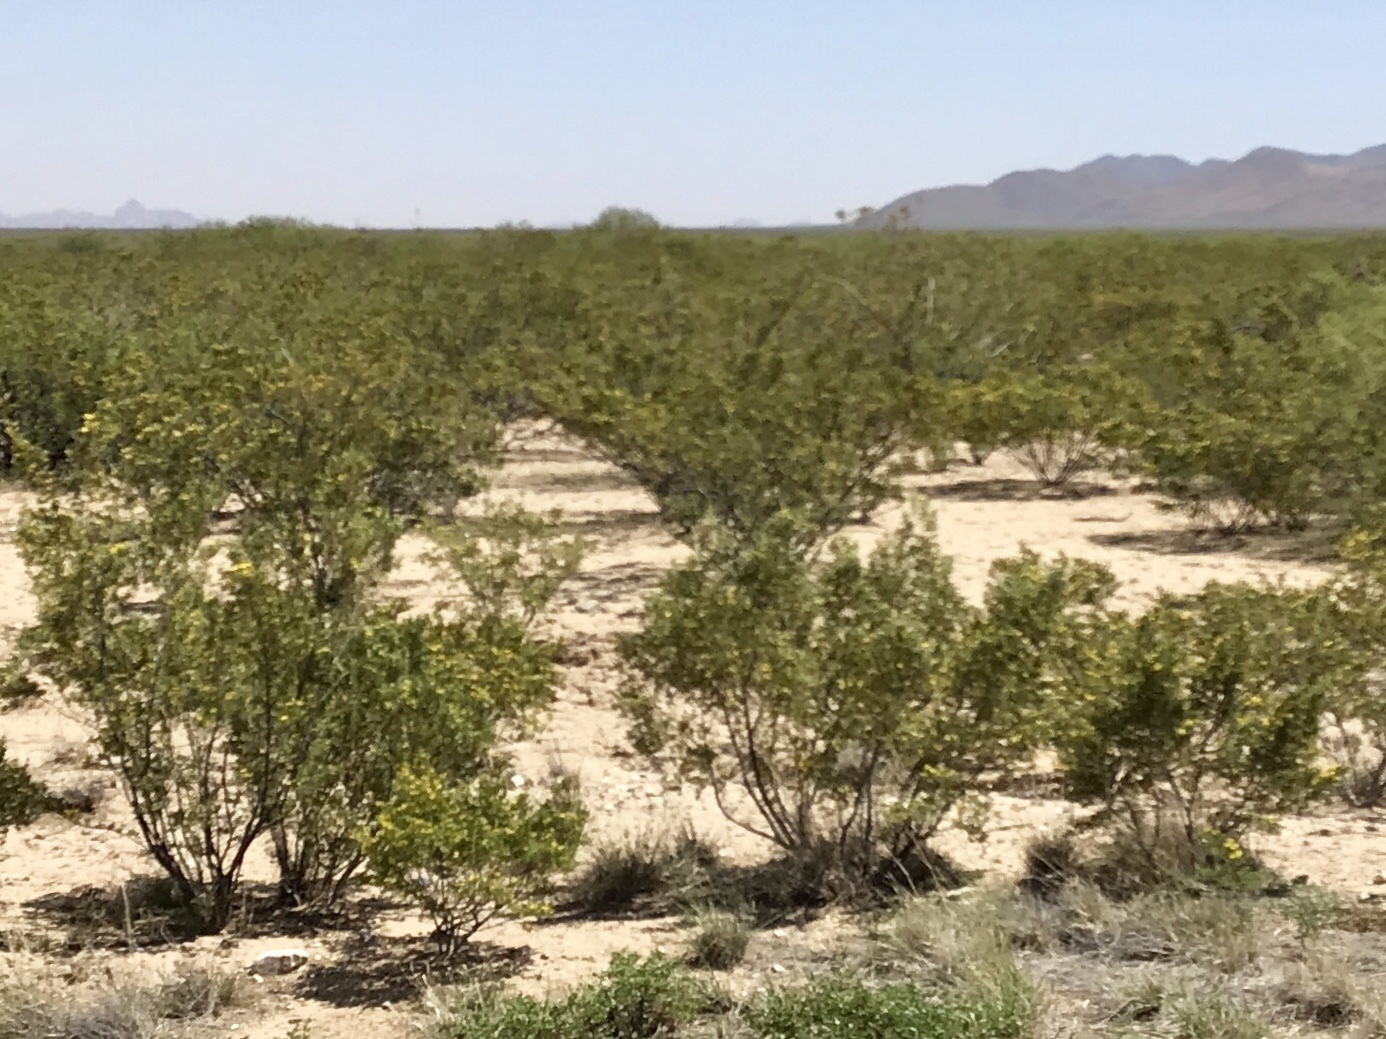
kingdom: Plantae
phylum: Tracheophyta
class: Magnoliopsida
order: Zygophyllales
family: Zygophyllaceae
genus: Larrea
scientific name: Larrea tridentata
